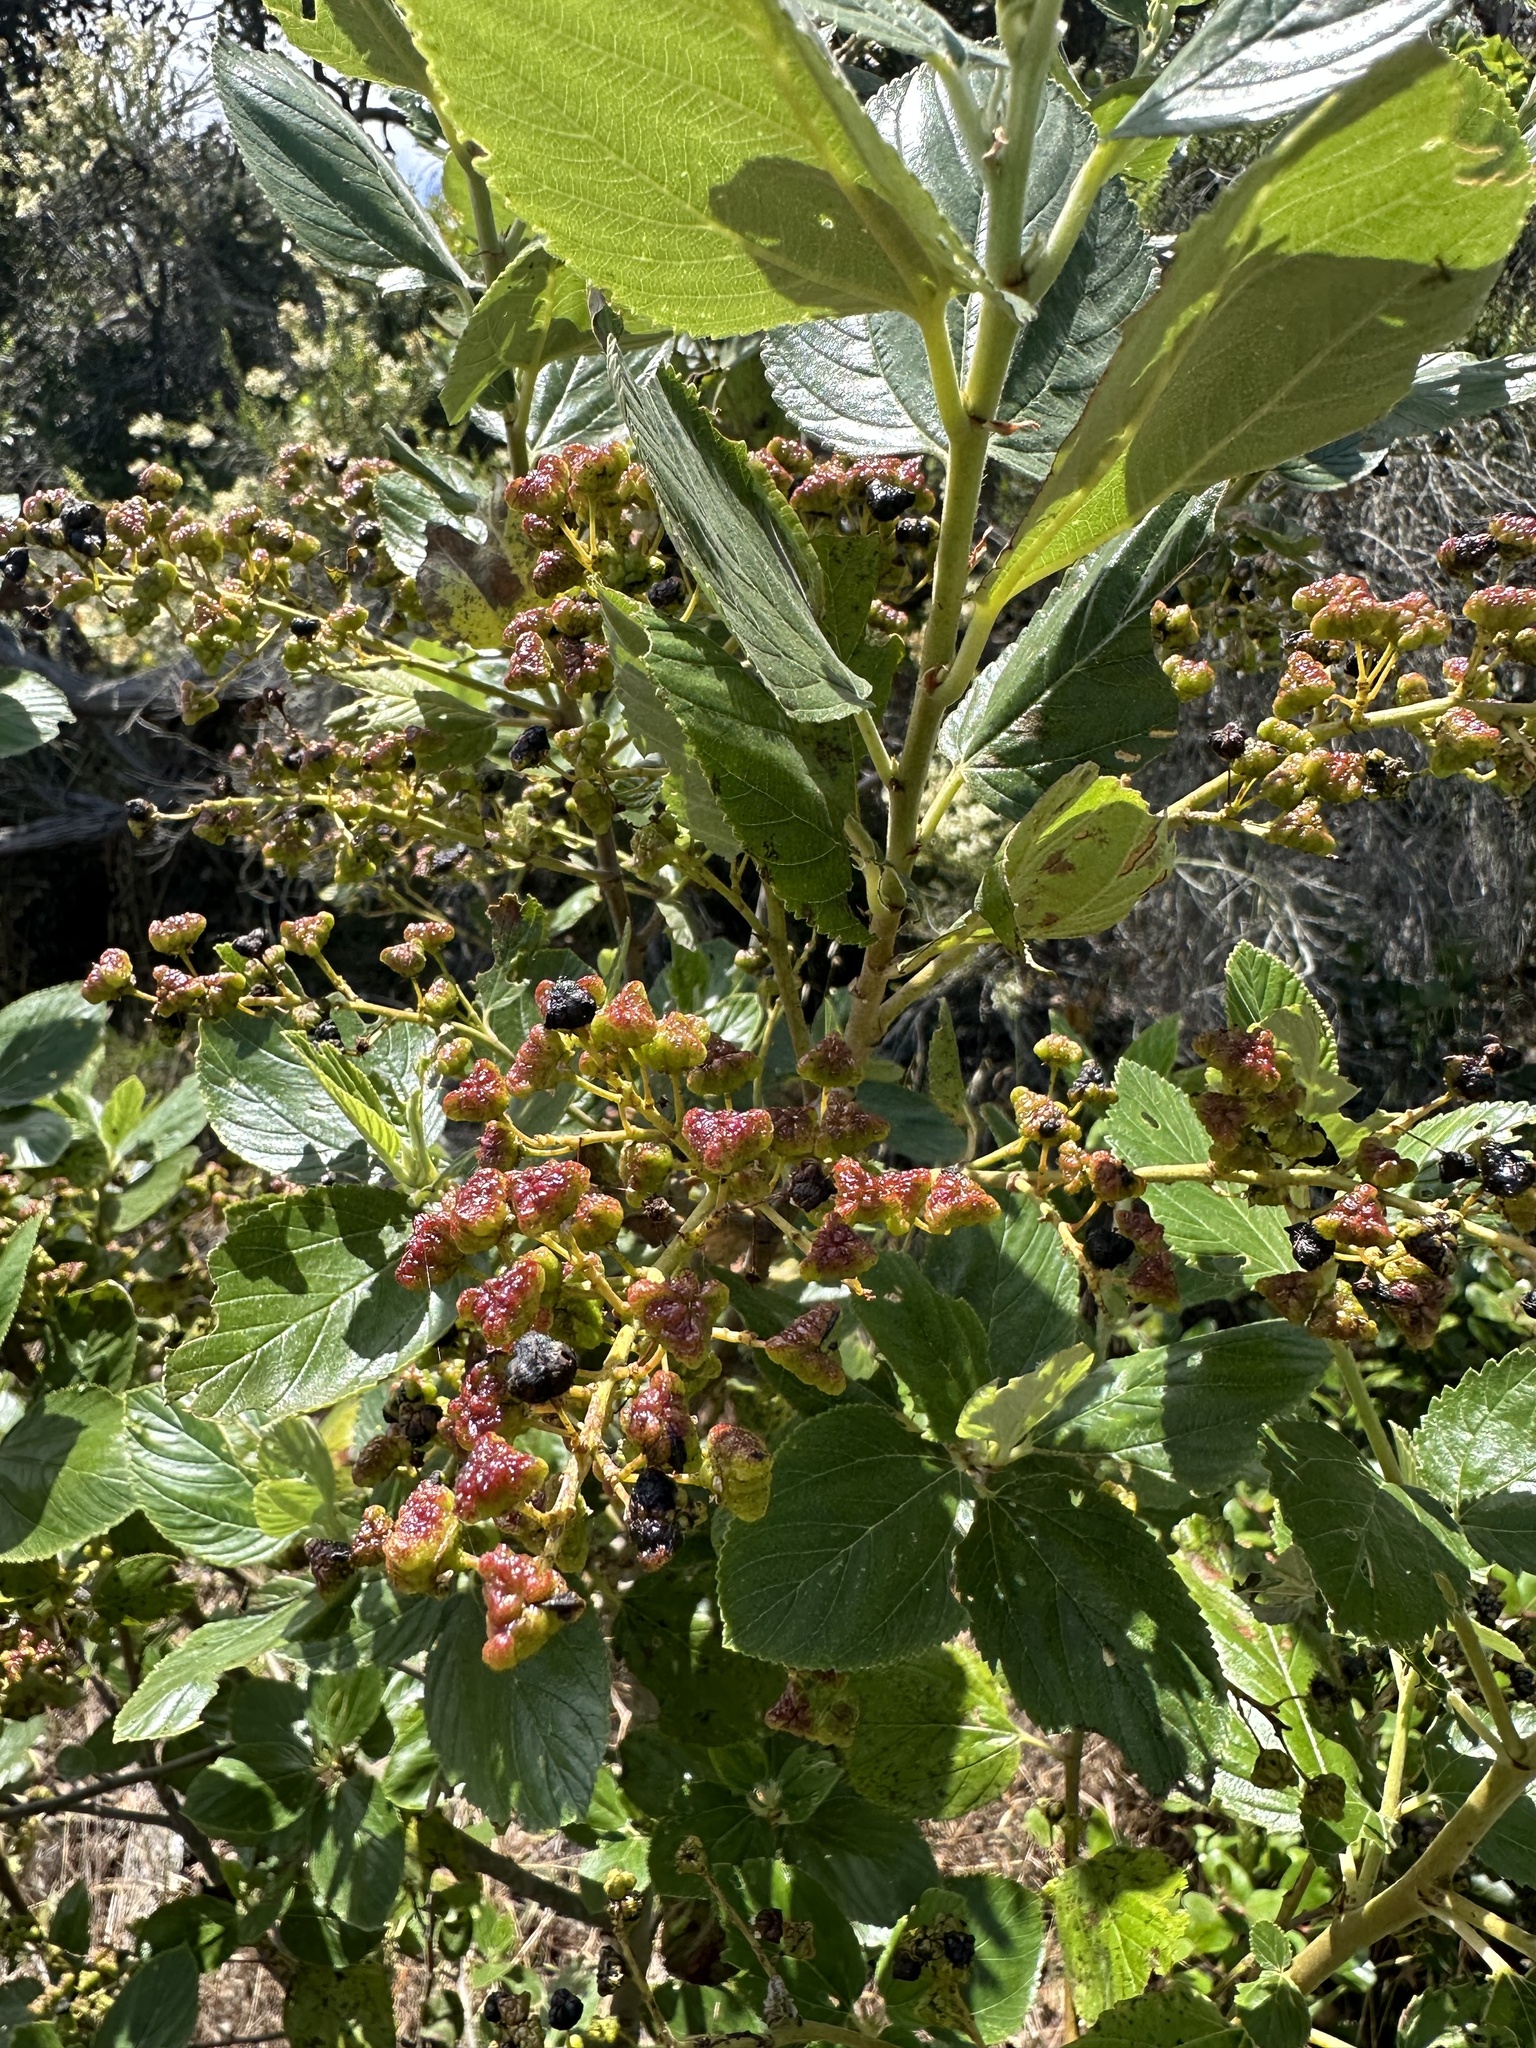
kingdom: Plantae
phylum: Tracheophyta
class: Magnoliopsida
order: Rosales
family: Rhamnaceae
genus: Ceanothus
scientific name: Ceanothus arboreus
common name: Catalina mountain-lilac
